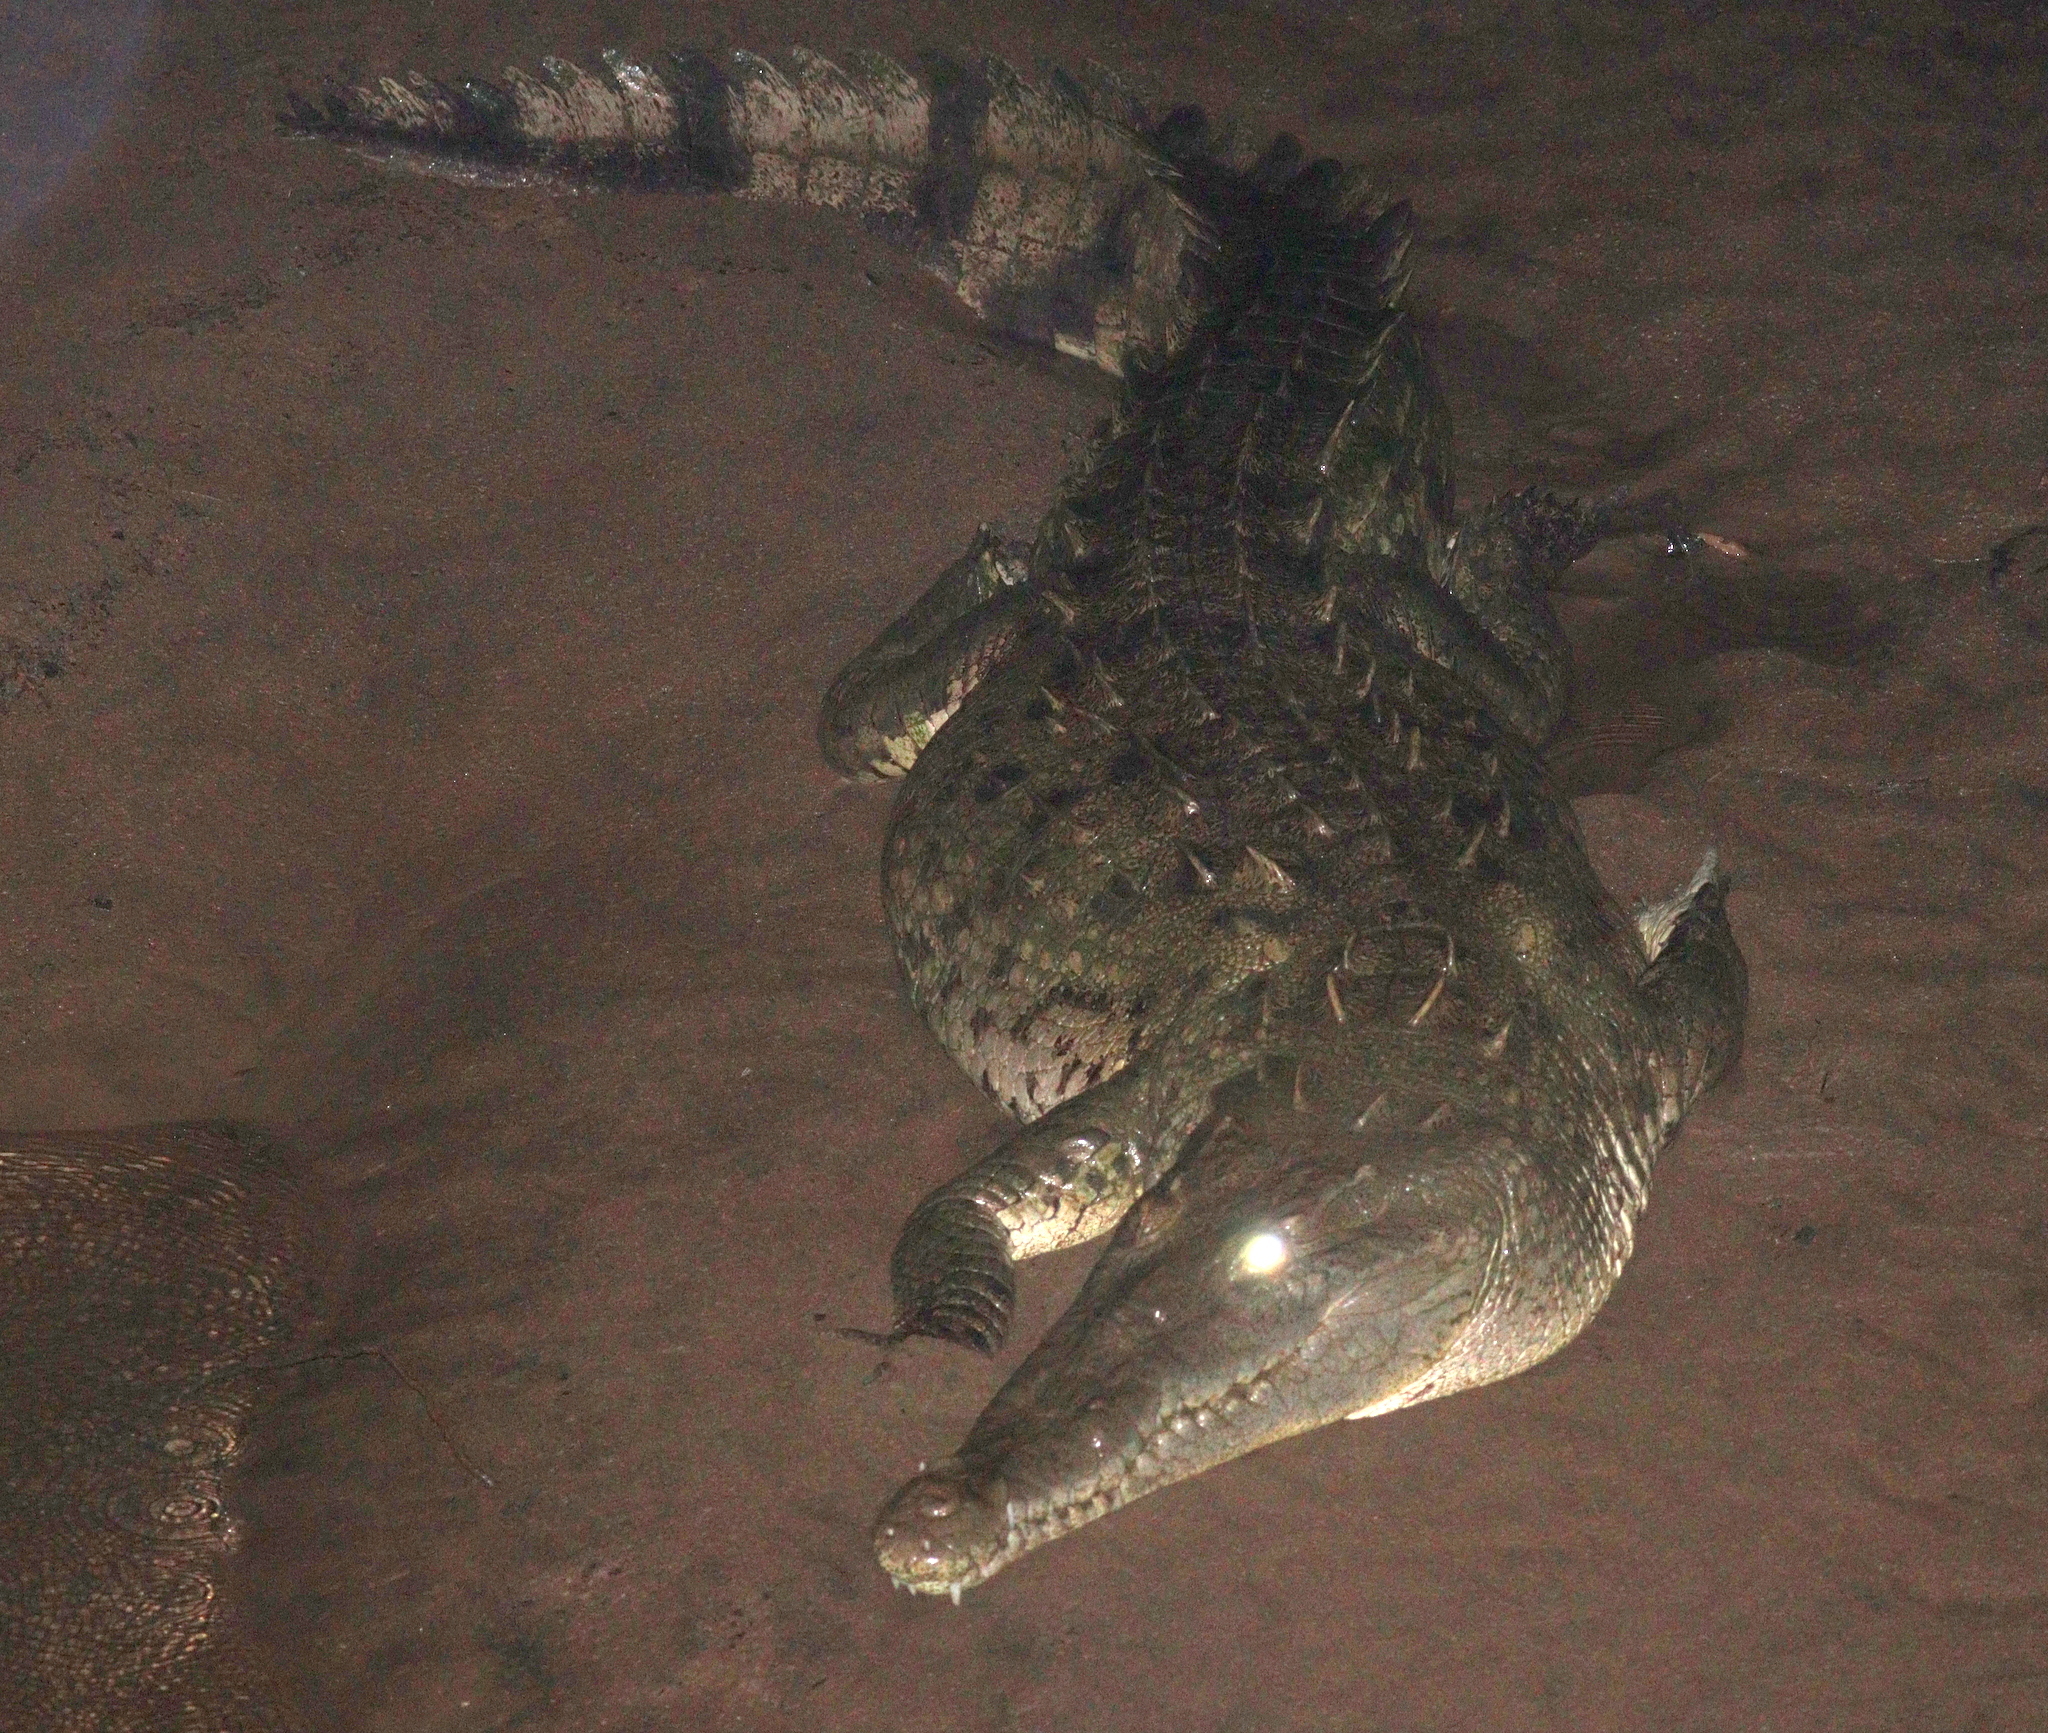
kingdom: Animalia
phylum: Chordata
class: Crocodylia
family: Crocodylidae
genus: Crocodylus
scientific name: Crocodylus acutus
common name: American crocodile
